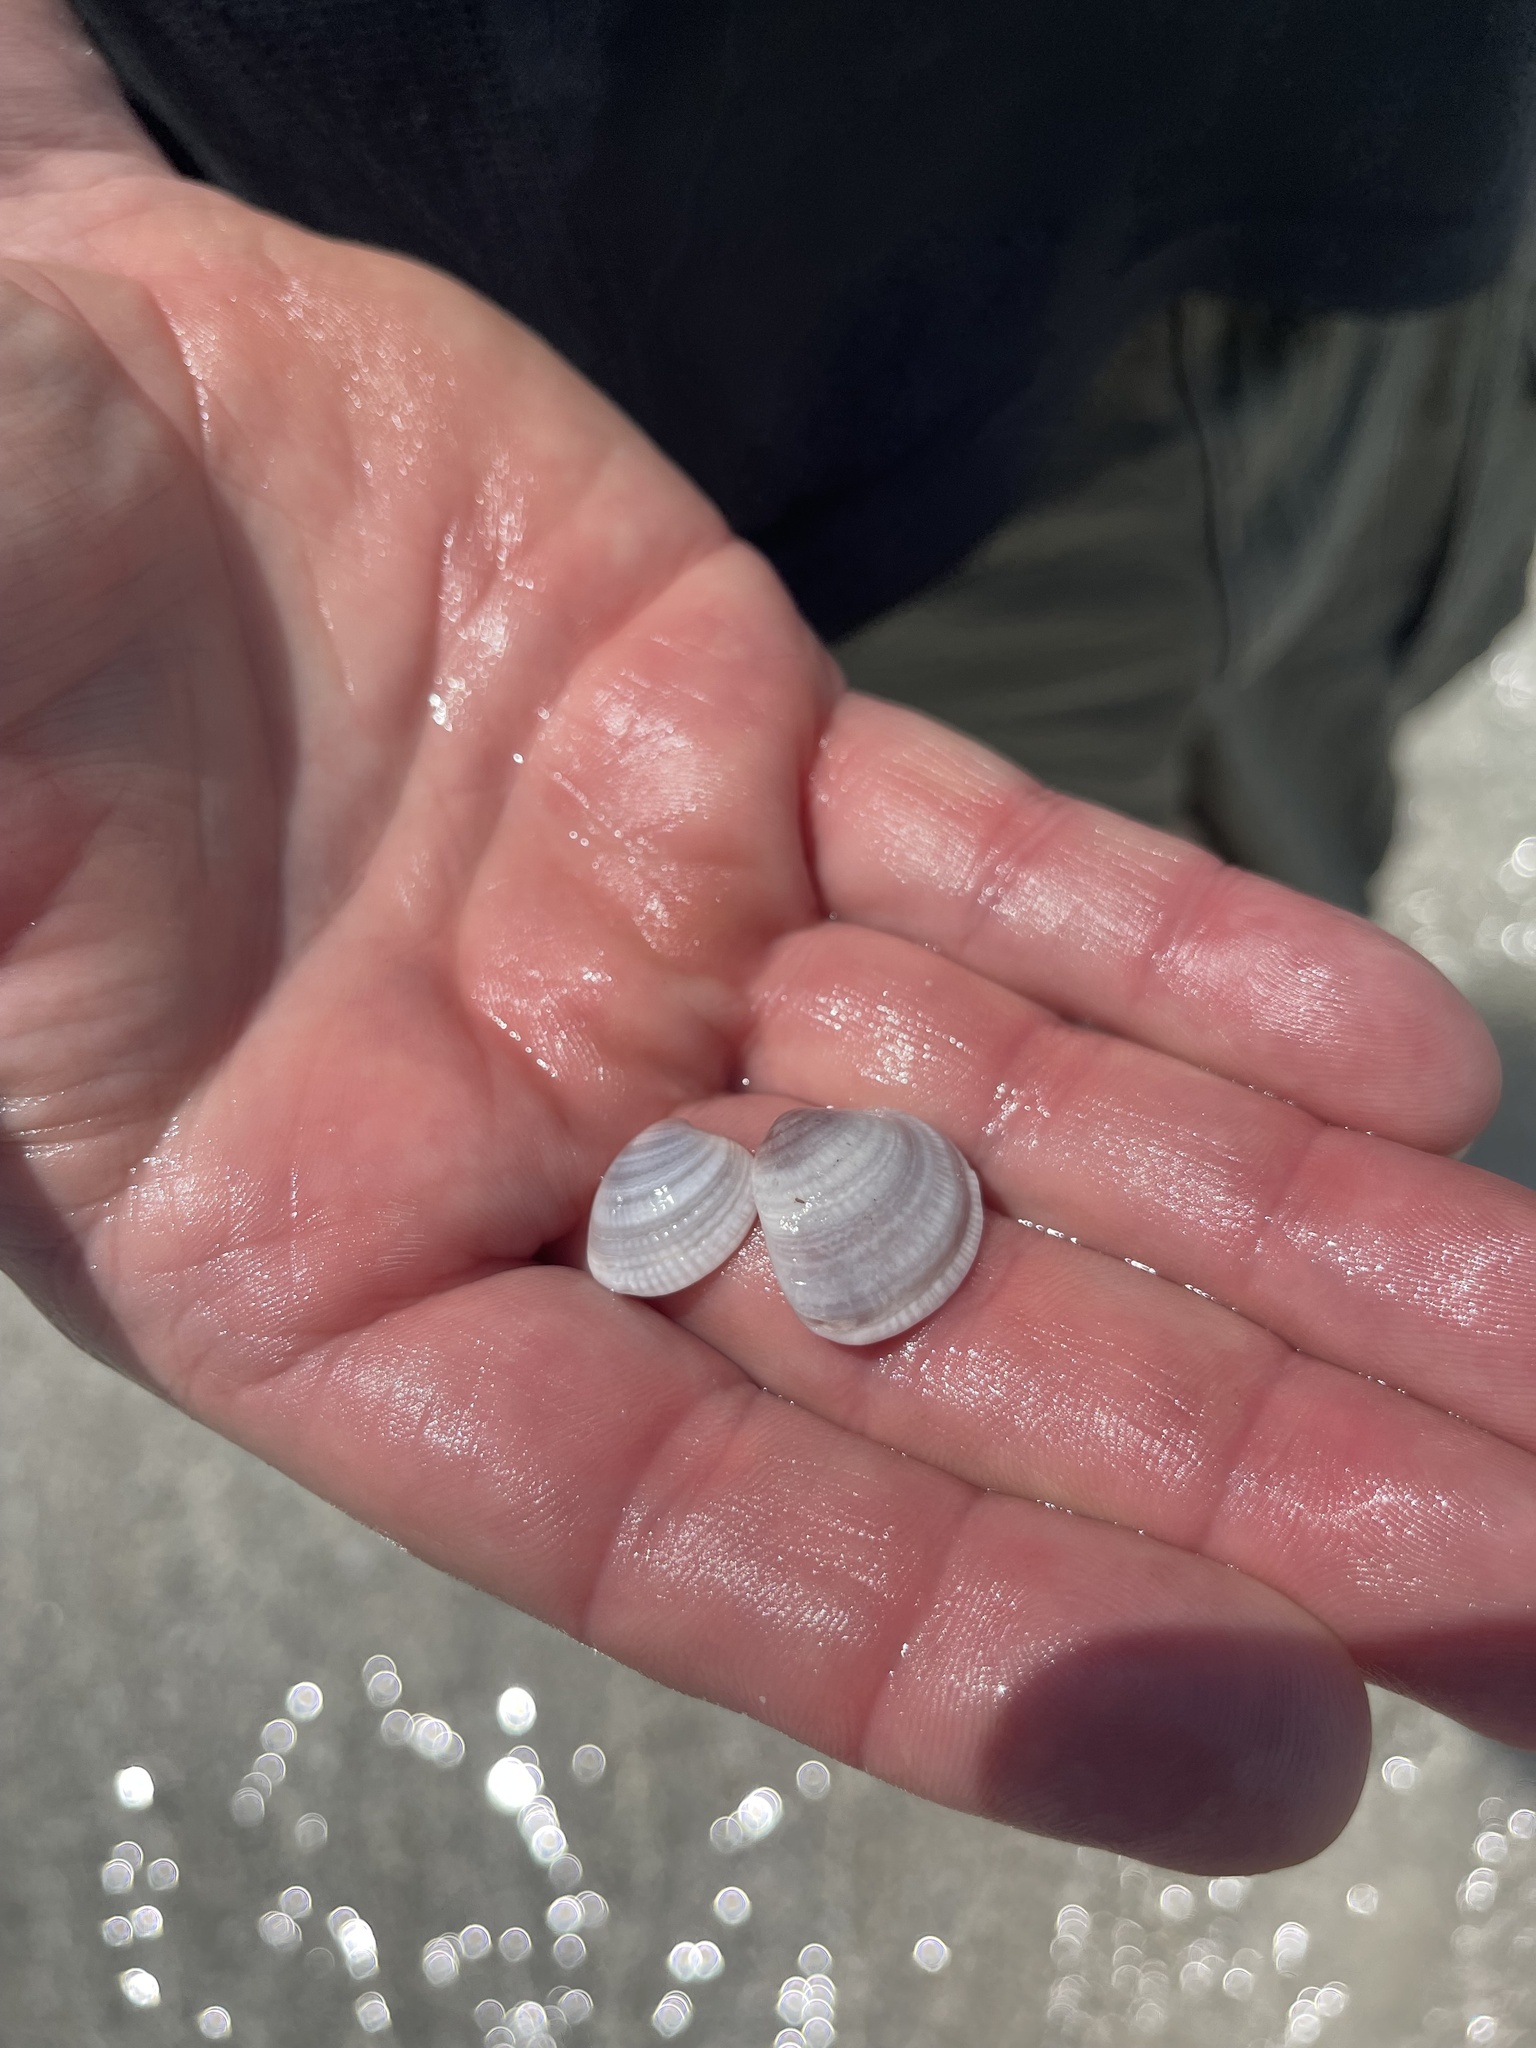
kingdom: Animalia
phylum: Mollusca
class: Bivalvia
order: Venerida
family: Veneridae
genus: Chione
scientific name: Chione elevata
